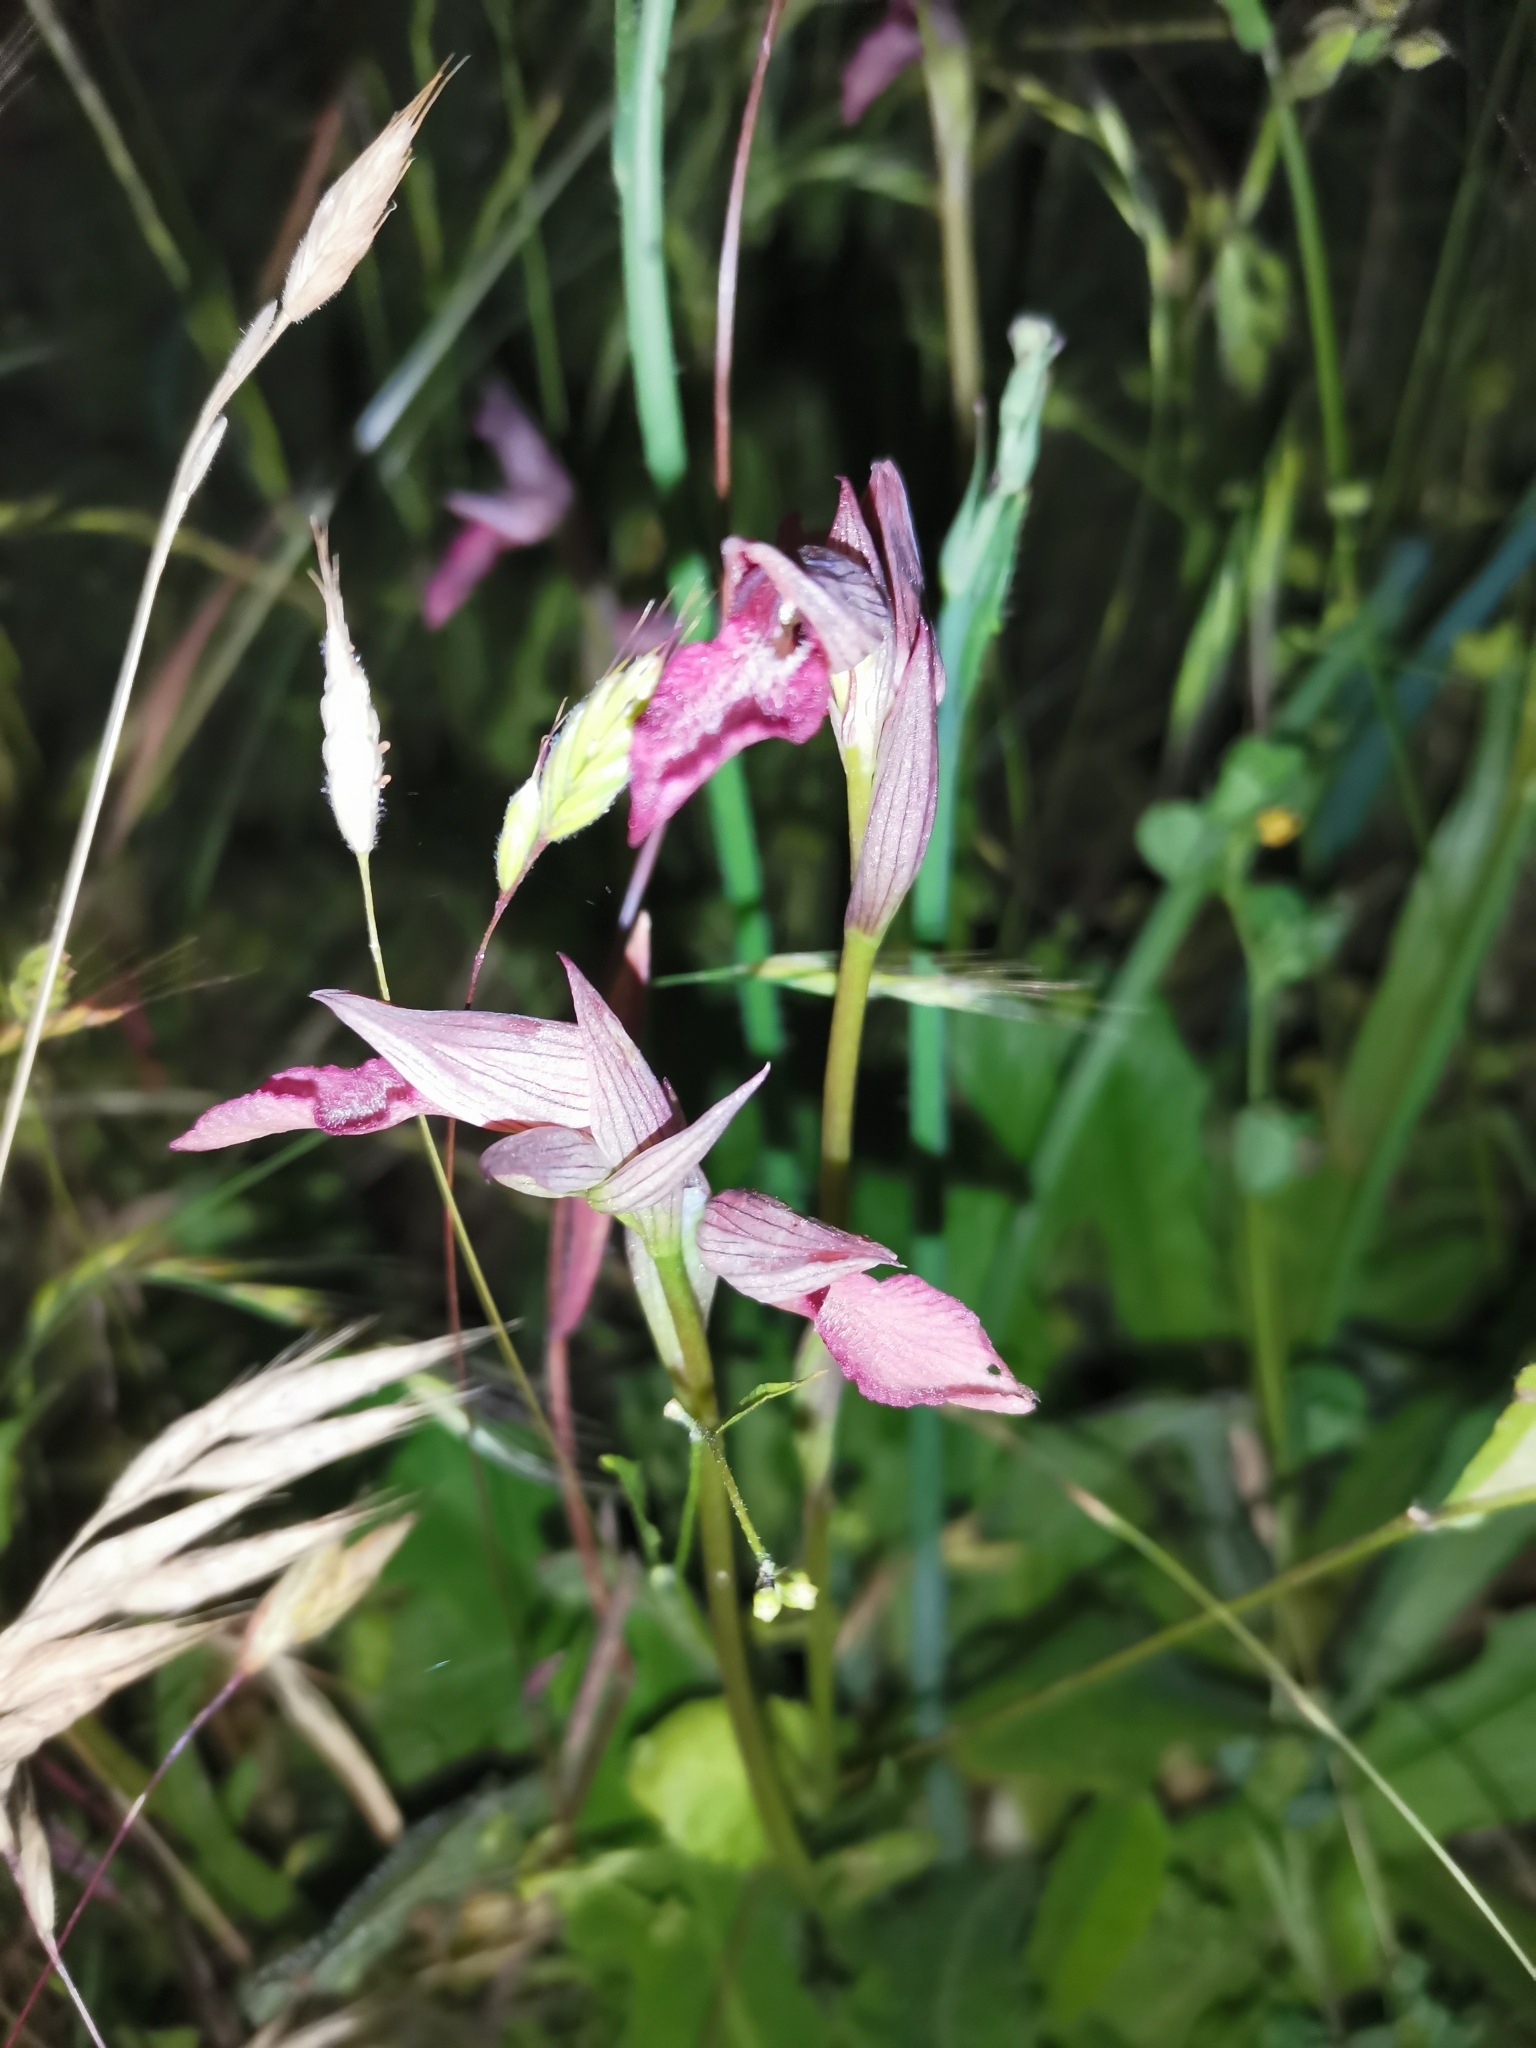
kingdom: Plantae
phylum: Tracheophyta
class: Liliopsida
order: Asparagales
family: Orchidaceae
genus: Serapias
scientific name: Serapias lingua
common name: Tongue-orchid
